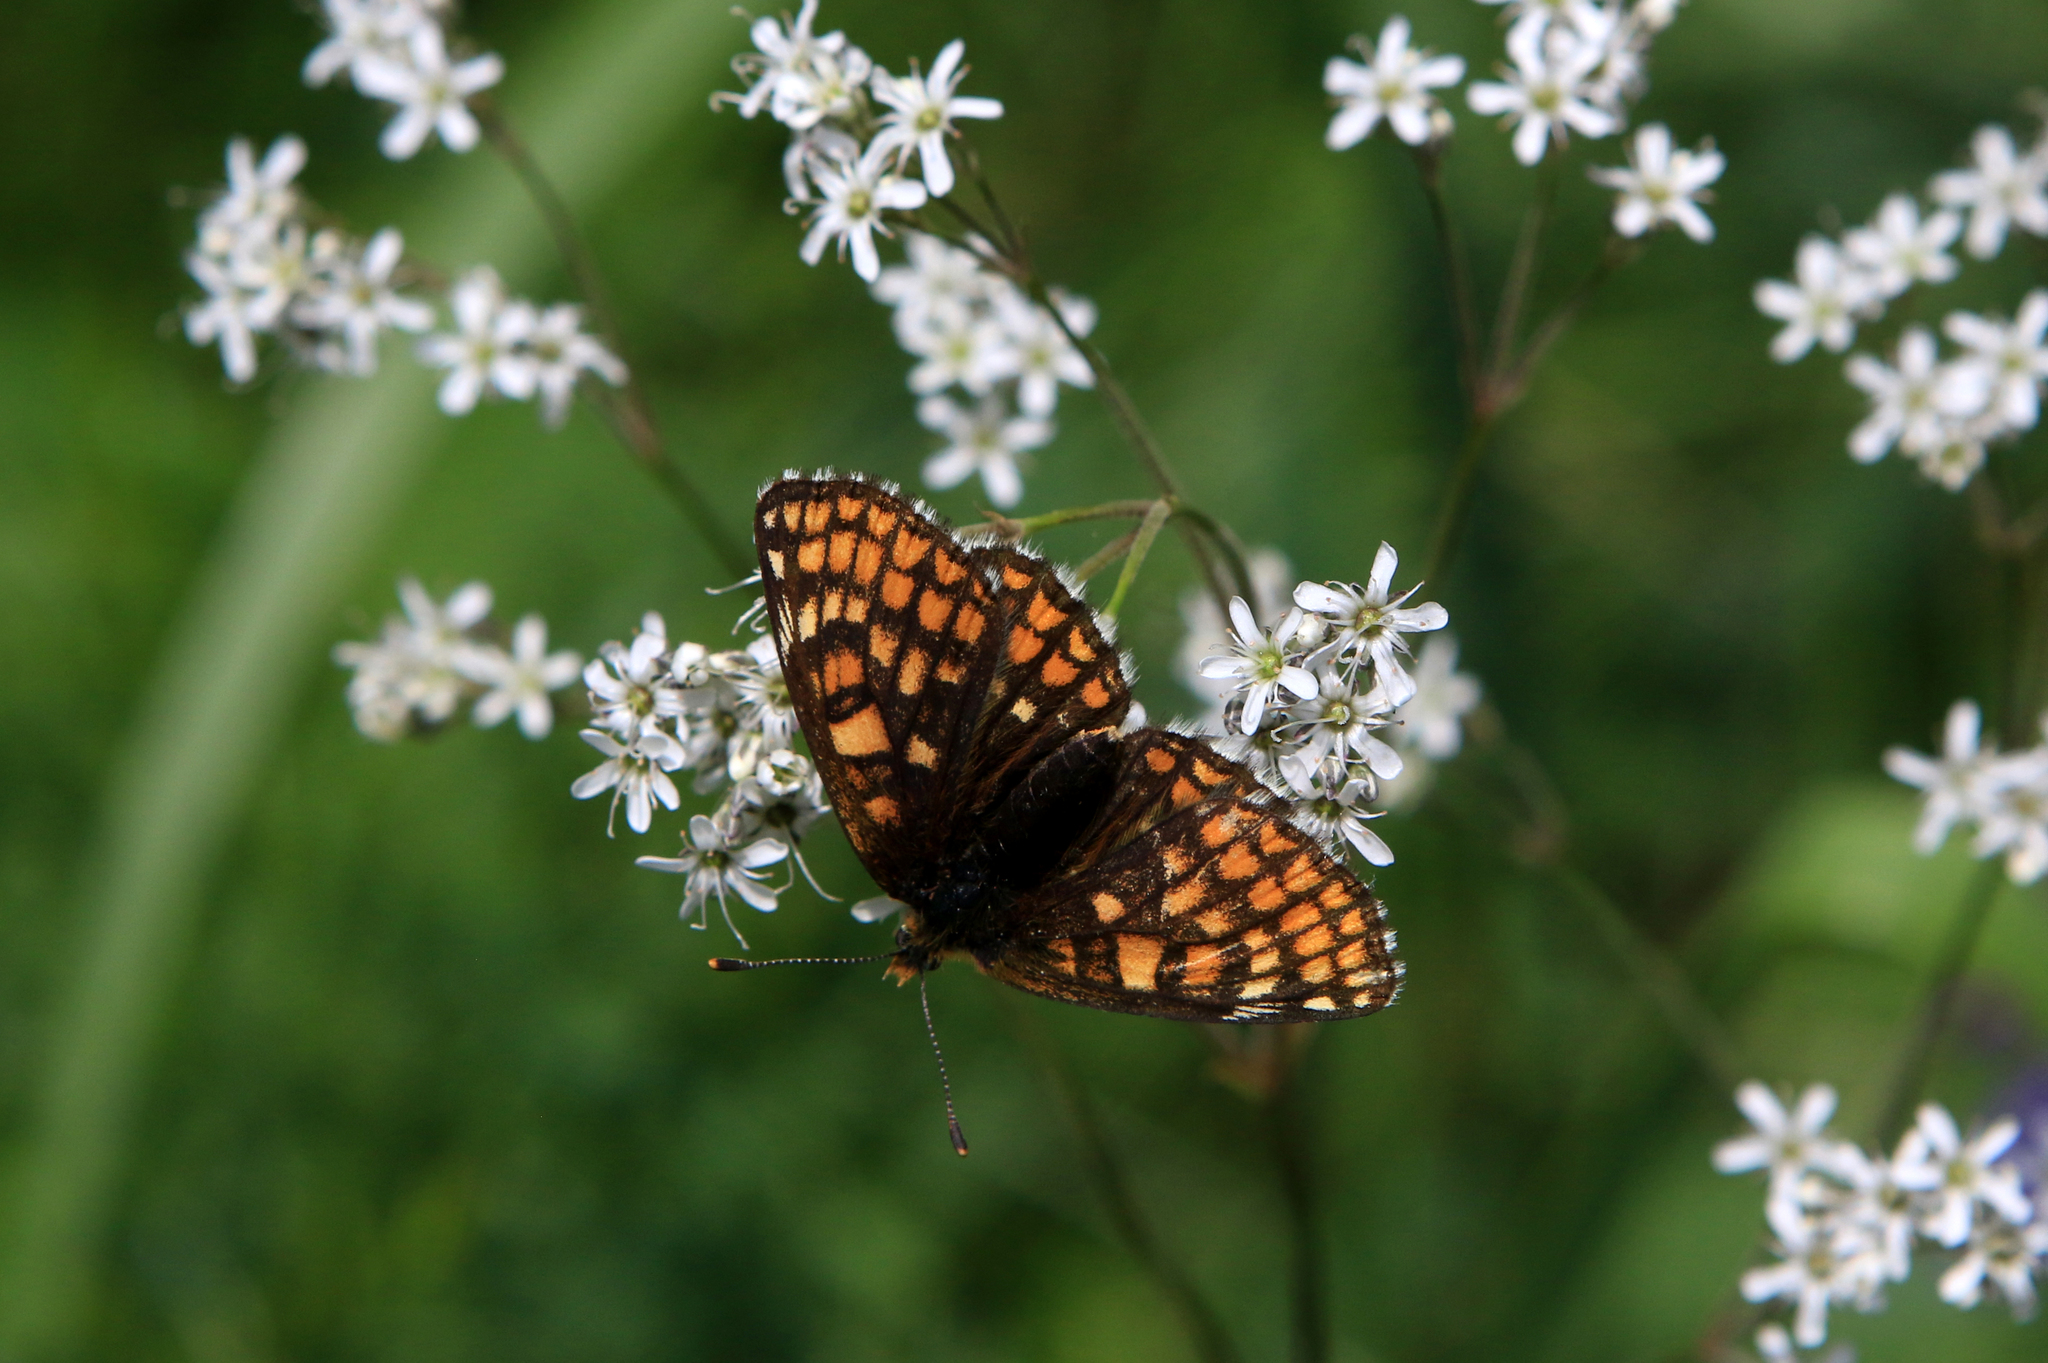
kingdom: Animalia
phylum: Arthropoda
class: Insecta
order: Lepidoptera
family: Nymphalidae
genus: Melitaea
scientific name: Melitaea
